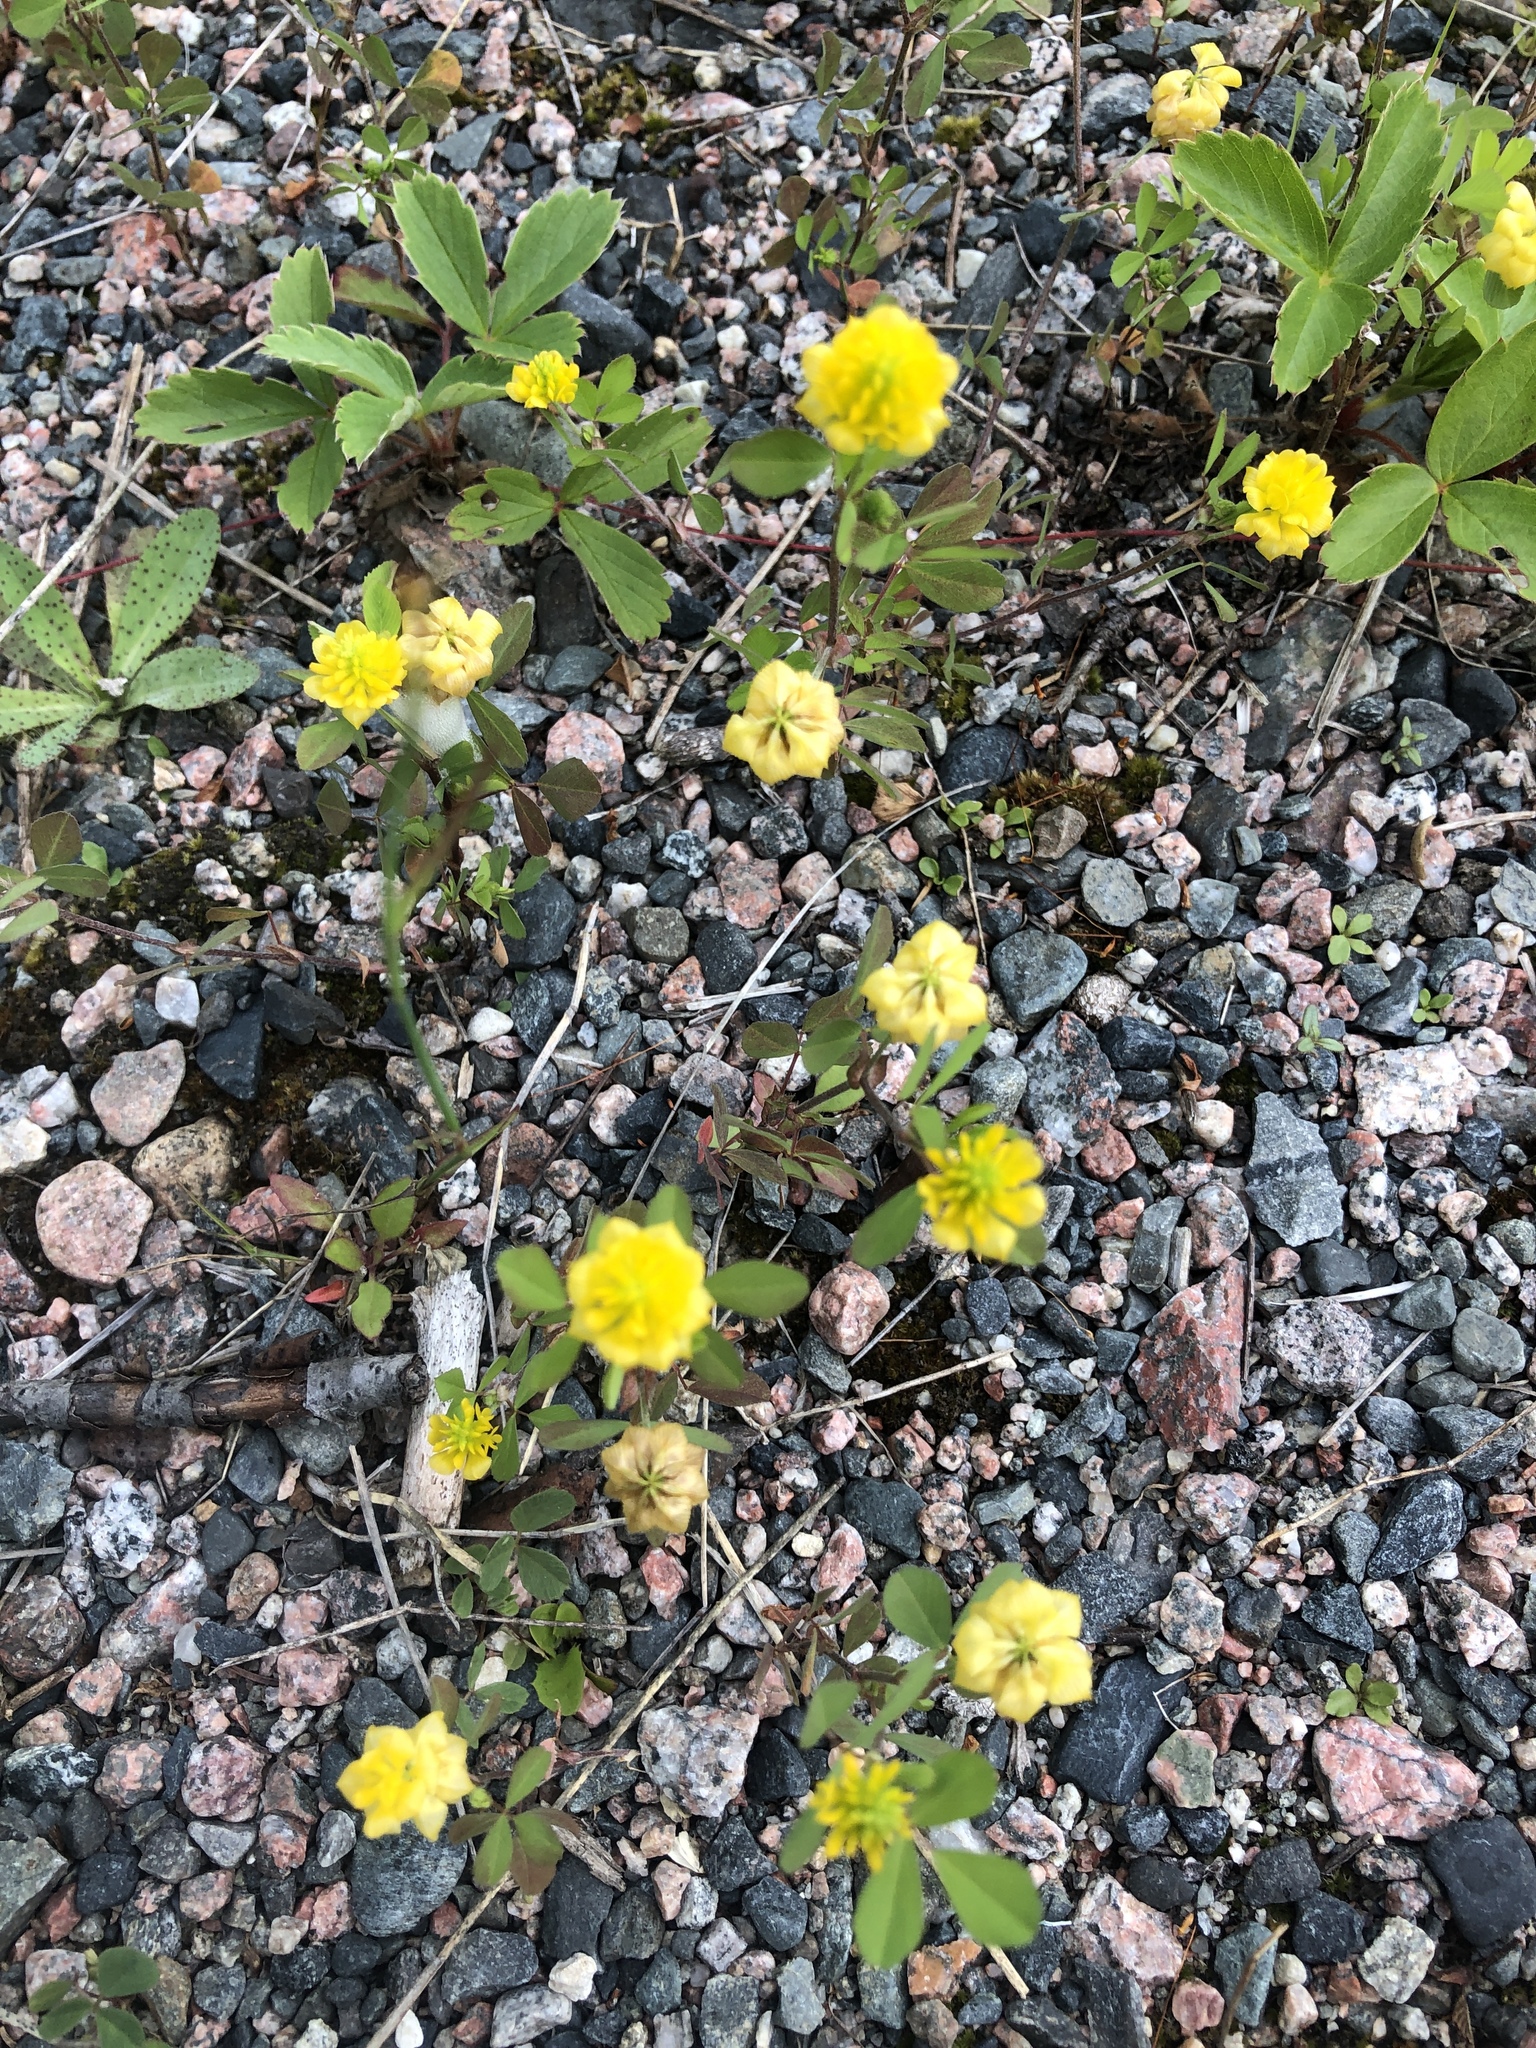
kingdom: Plantae
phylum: Tracheophyta
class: Magnoliopsida
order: Fabales
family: Fabaceae
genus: Medicago
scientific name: Medicago lupulina
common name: Black medick
